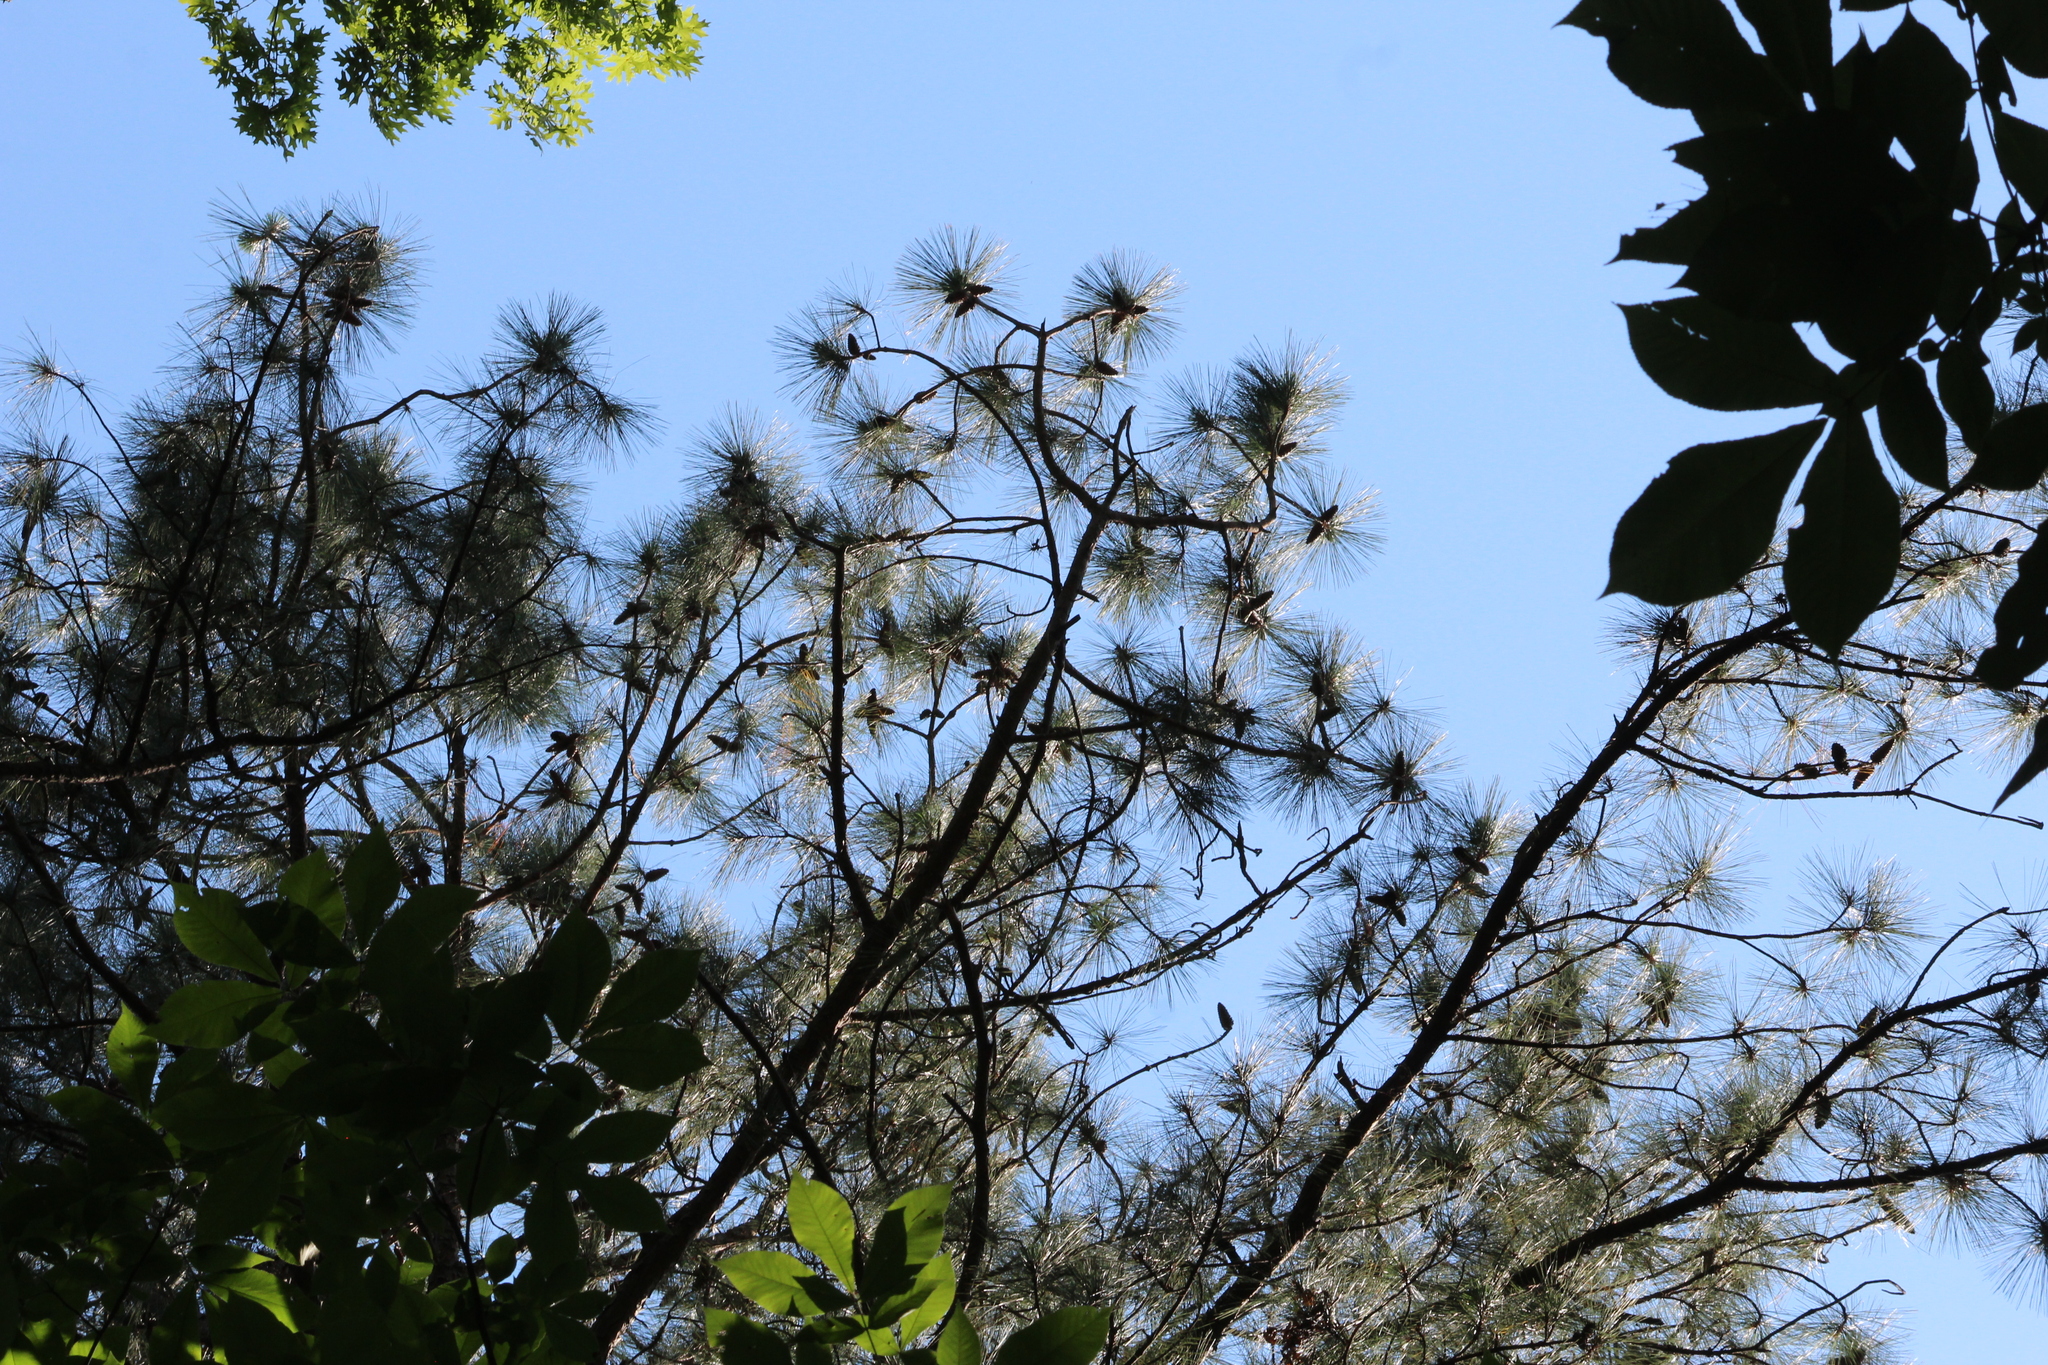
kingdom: Plantae
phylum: Tracheophyta
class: Pinopsida
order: Pinales
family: Pinaceae
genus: Pinus
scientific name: Pinus taeda
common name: Loblolly pine
